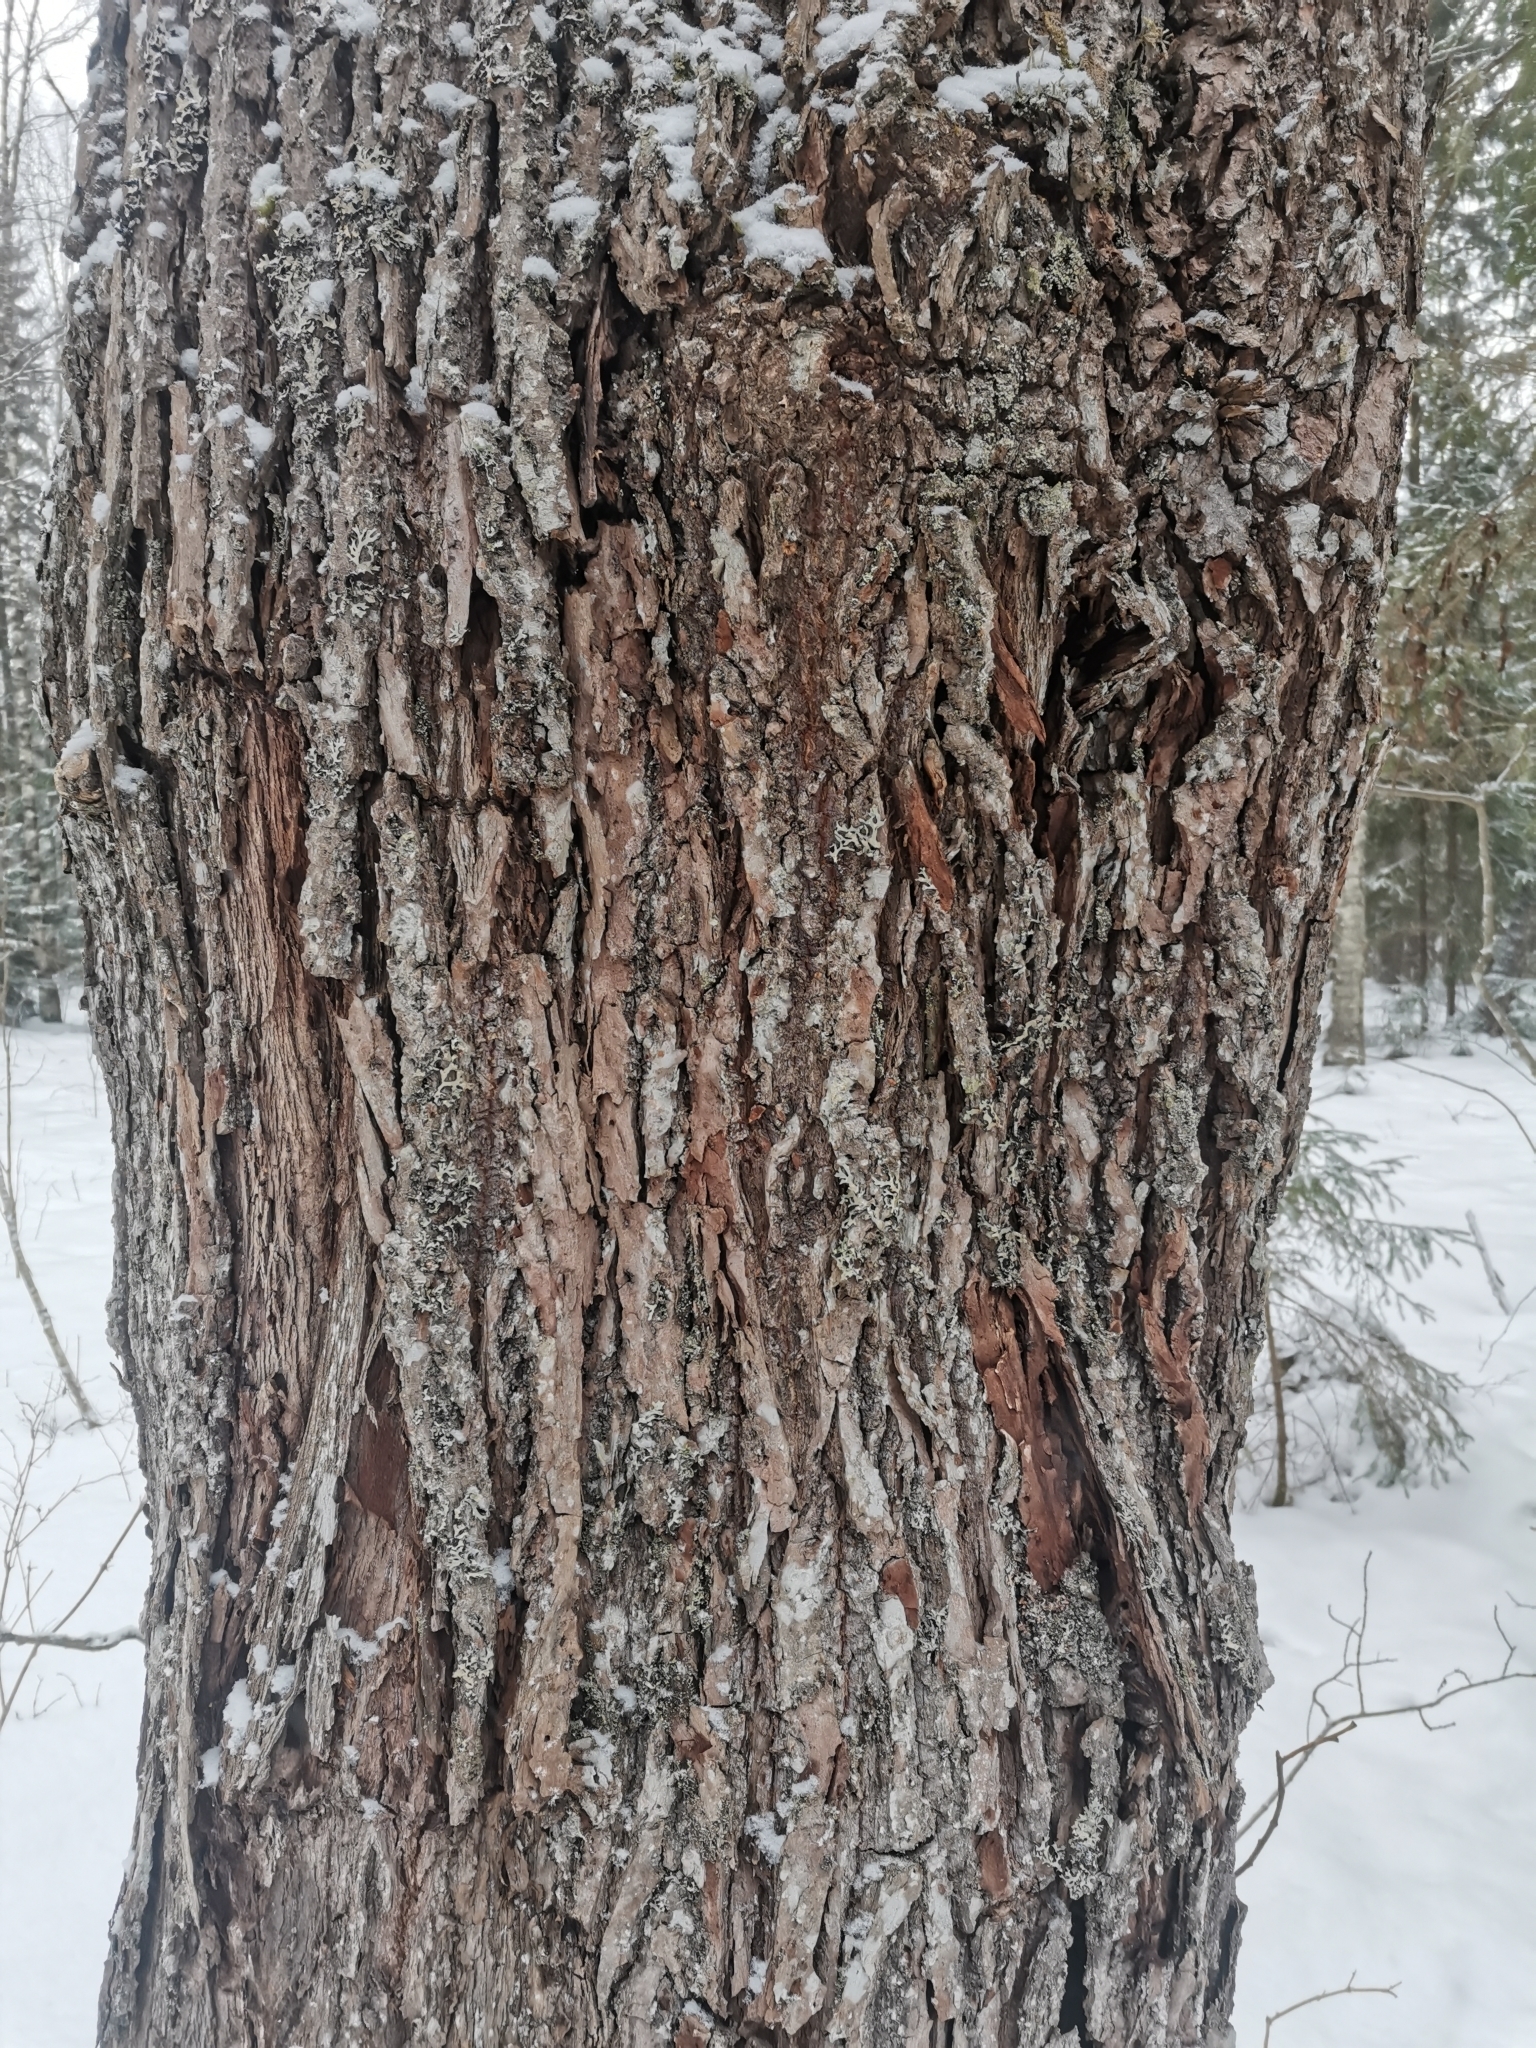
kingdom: Plantae
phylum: Tracheophyta
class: Magnoliopsida
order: Malpighiales
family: Salicaceae
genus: Salix
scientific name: Salix caprea
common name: Goat willow
